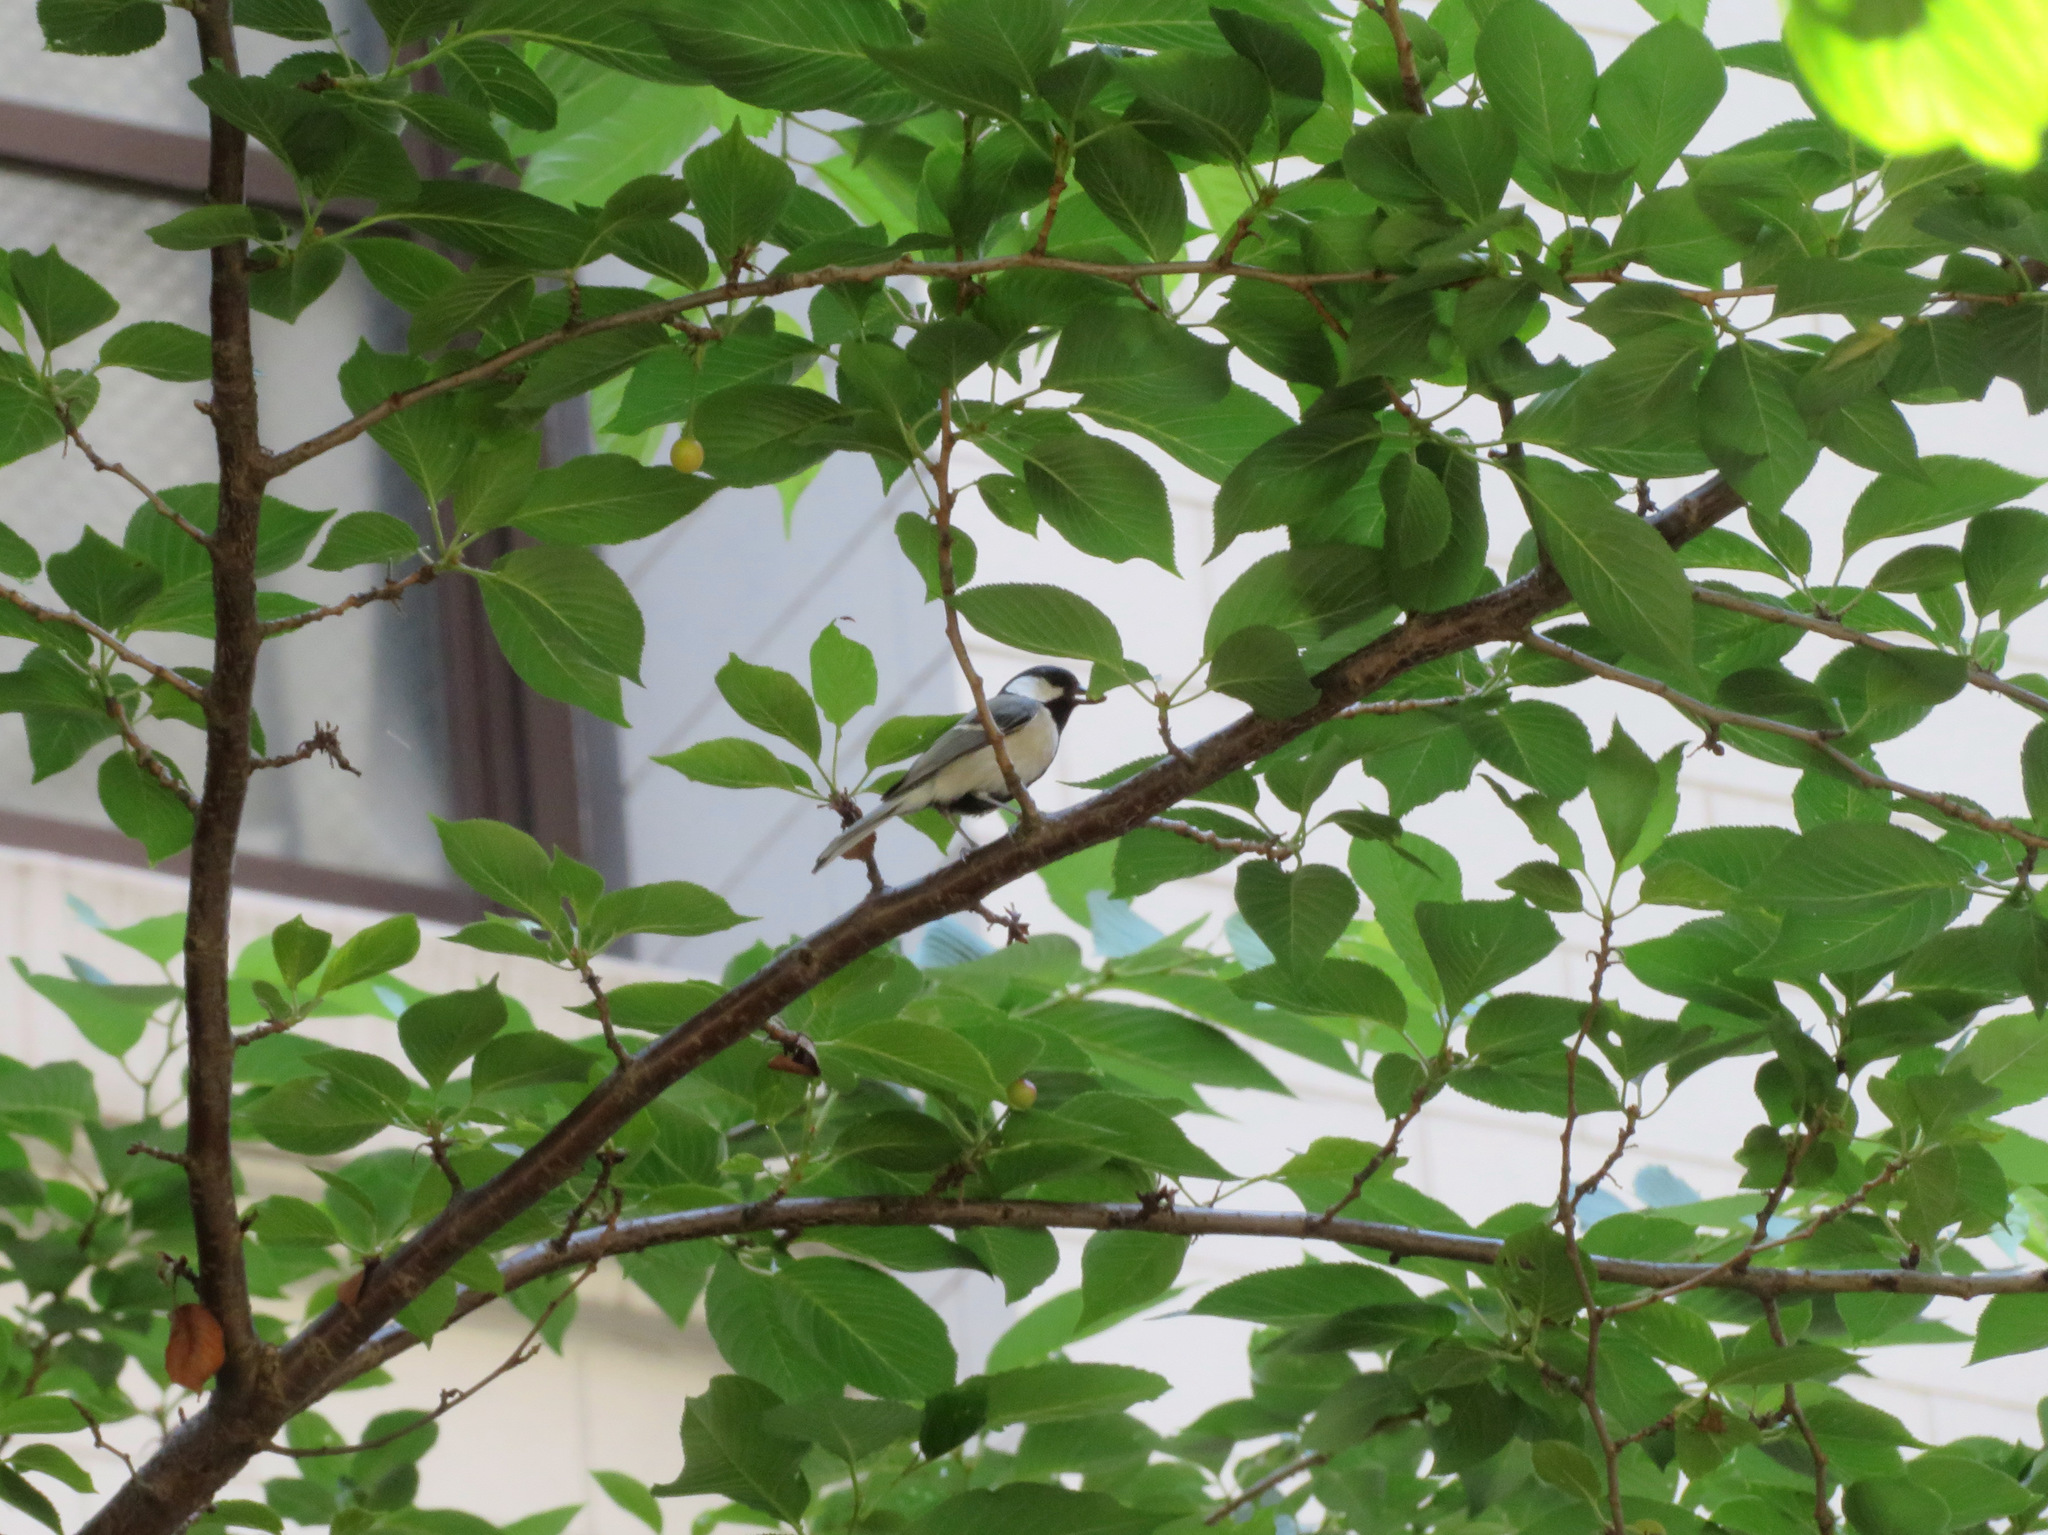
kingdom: Animalia
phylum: Chordata
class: Aves
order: Passeriformes
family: Paridae
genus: Parus
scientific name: Parus minor
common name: Japanese tit
